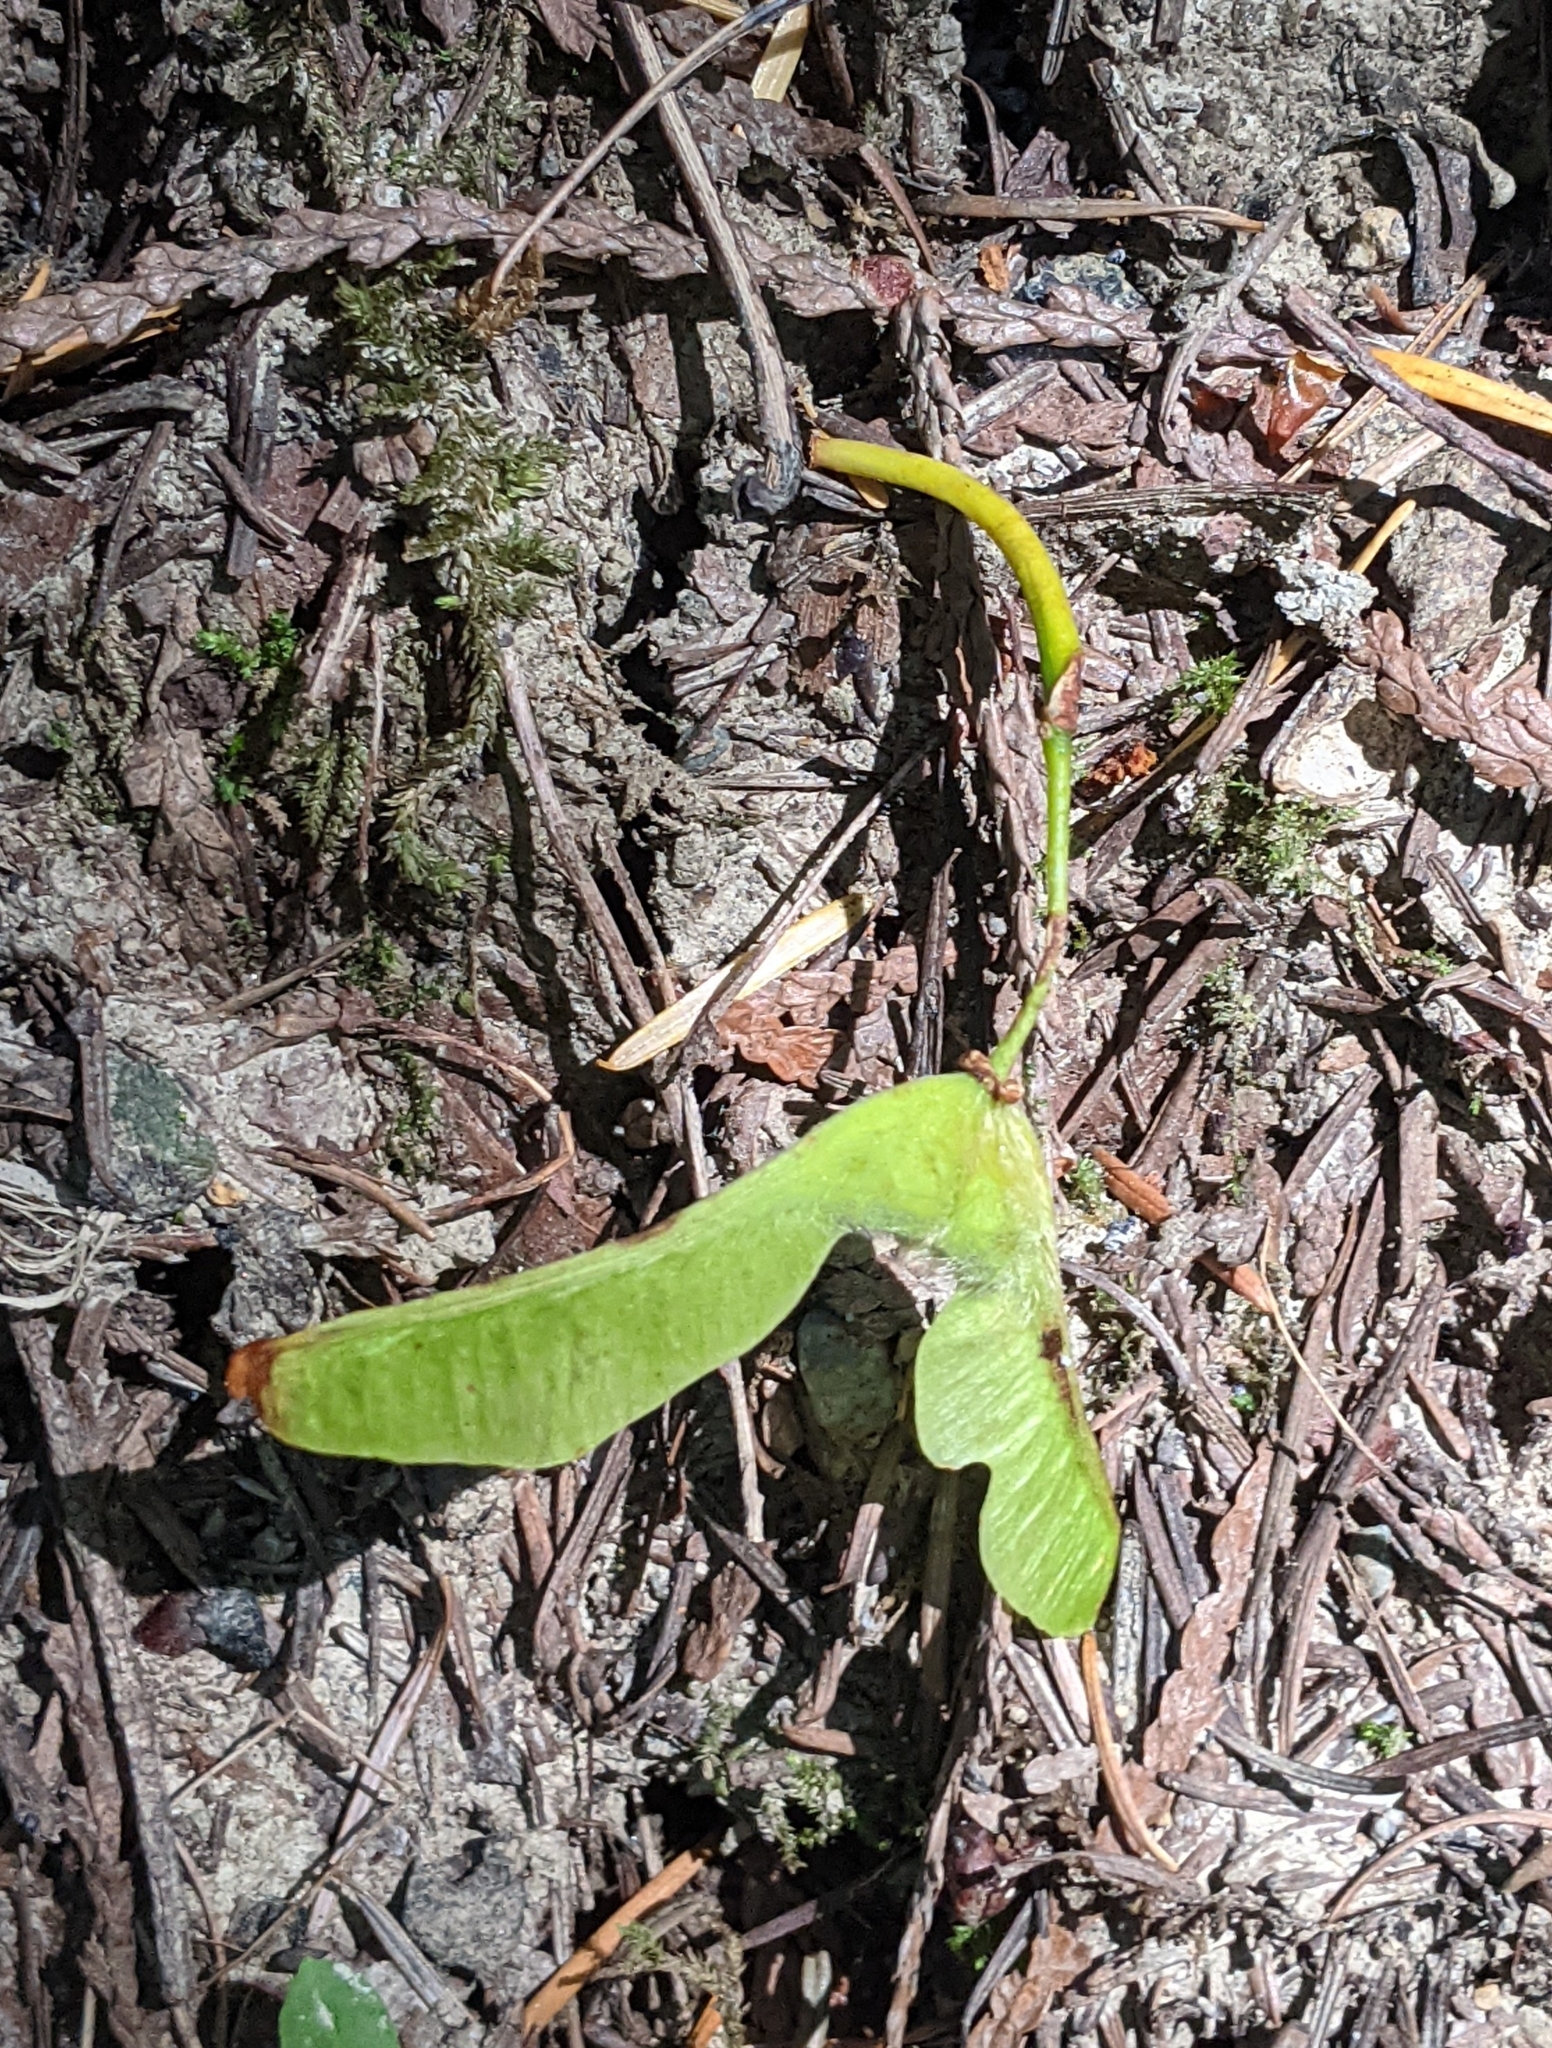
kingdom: Plantae
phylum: Tracheophyta
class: Magnoliopsida
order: Sapindales
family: Sapindaceae
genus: Acer
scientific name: Acer macrophyllum
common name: Oregon maple
